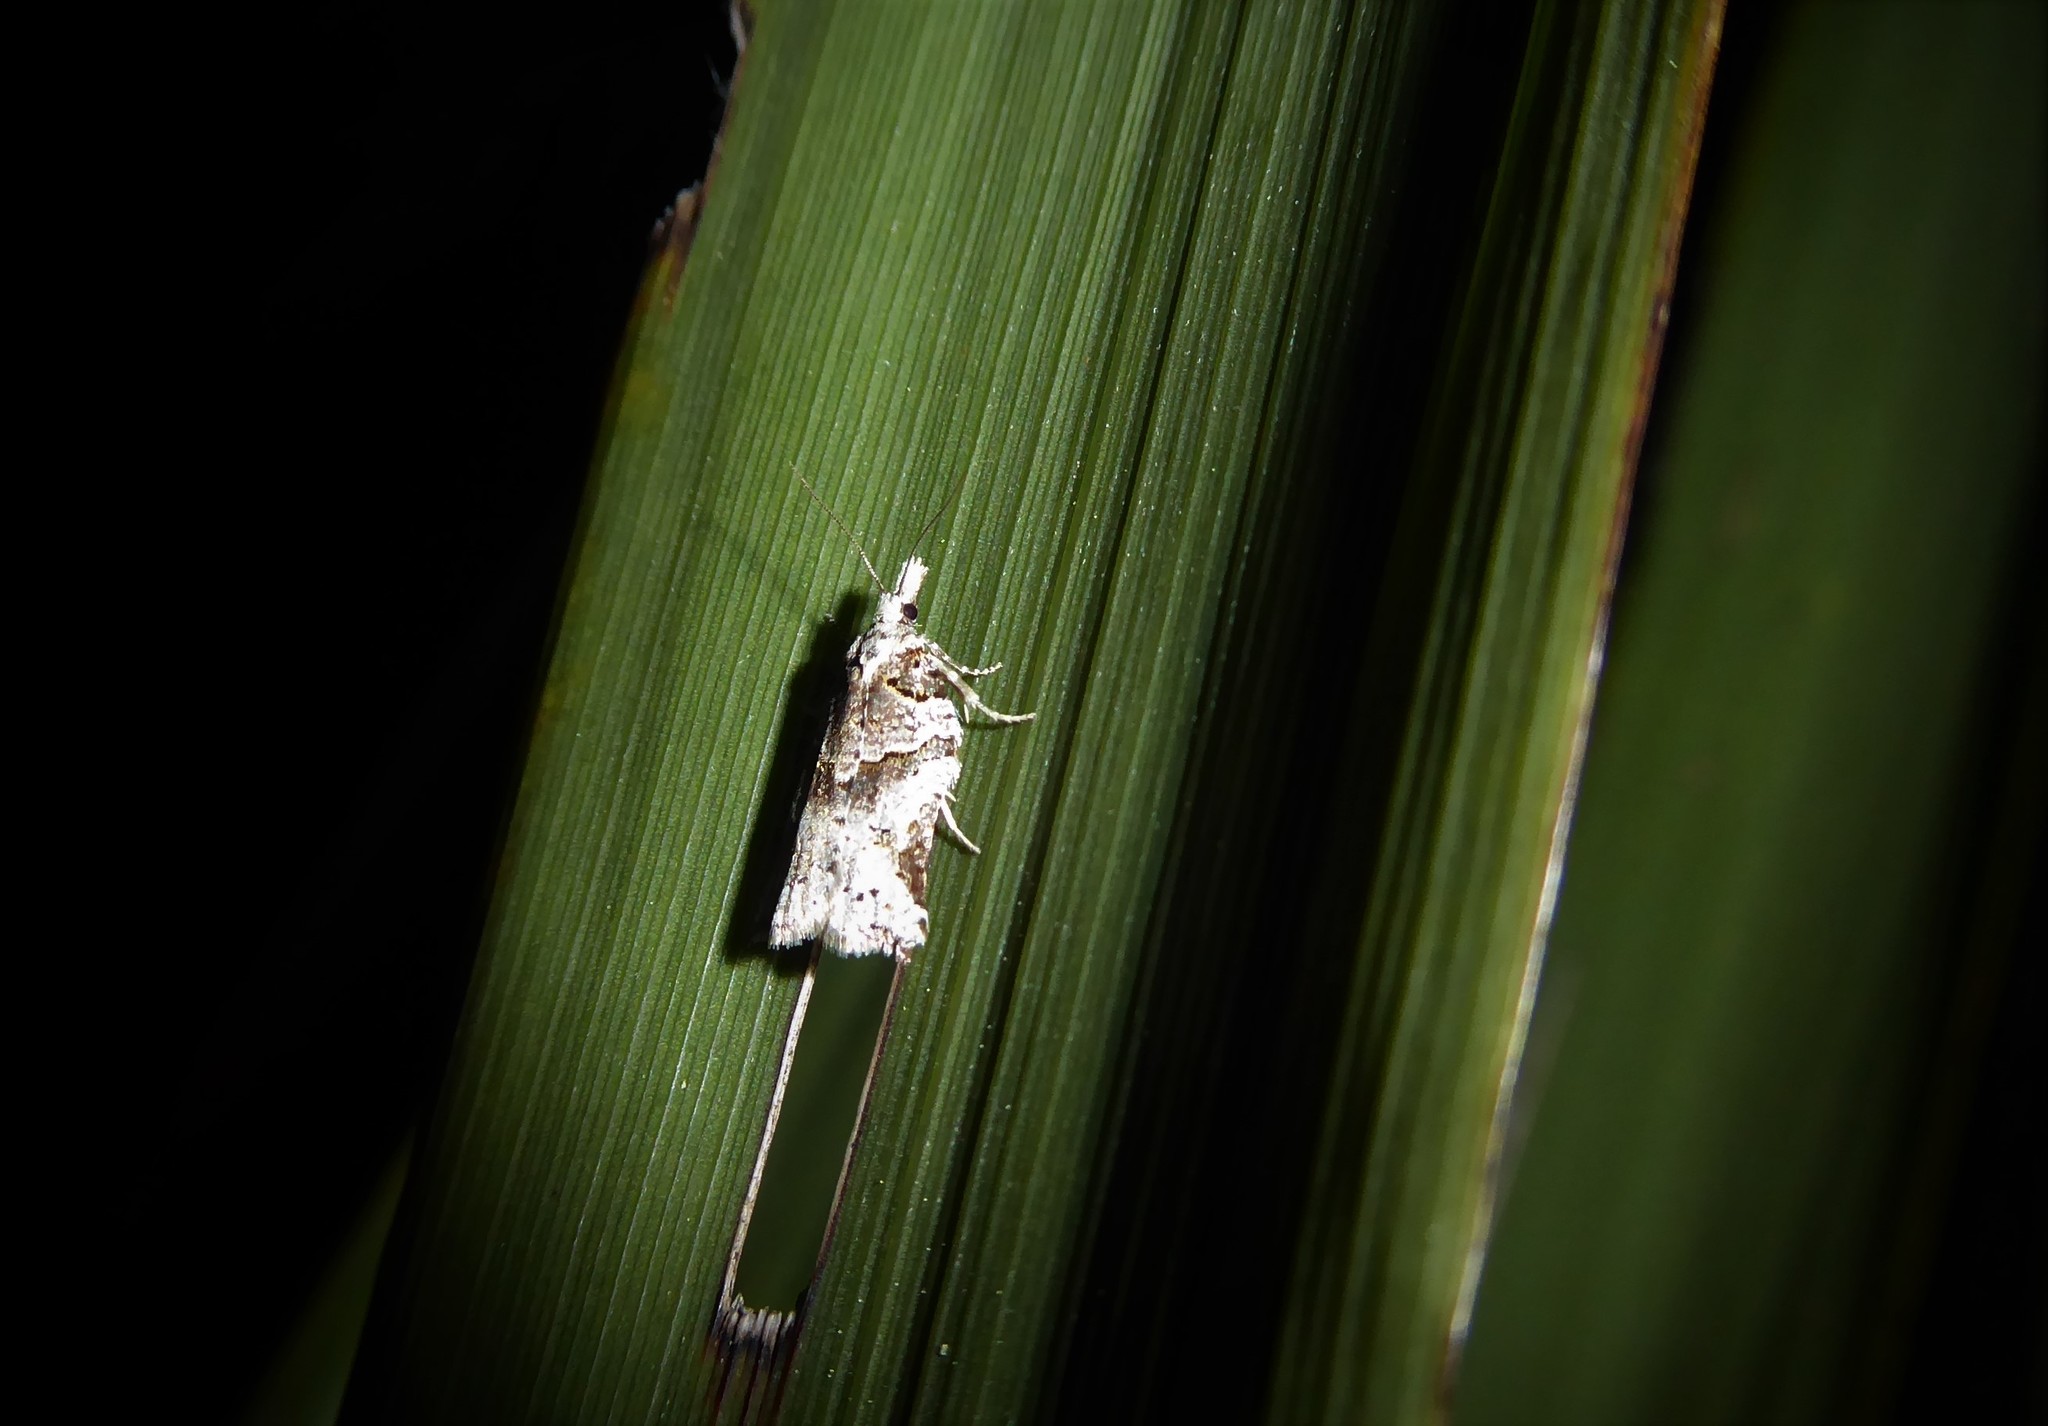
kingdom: Animalia
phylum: Arthropoda
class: Insecta
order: Lepidoptera
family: Tortricidae
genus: Harmologa
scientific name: Harmologa amplexana
